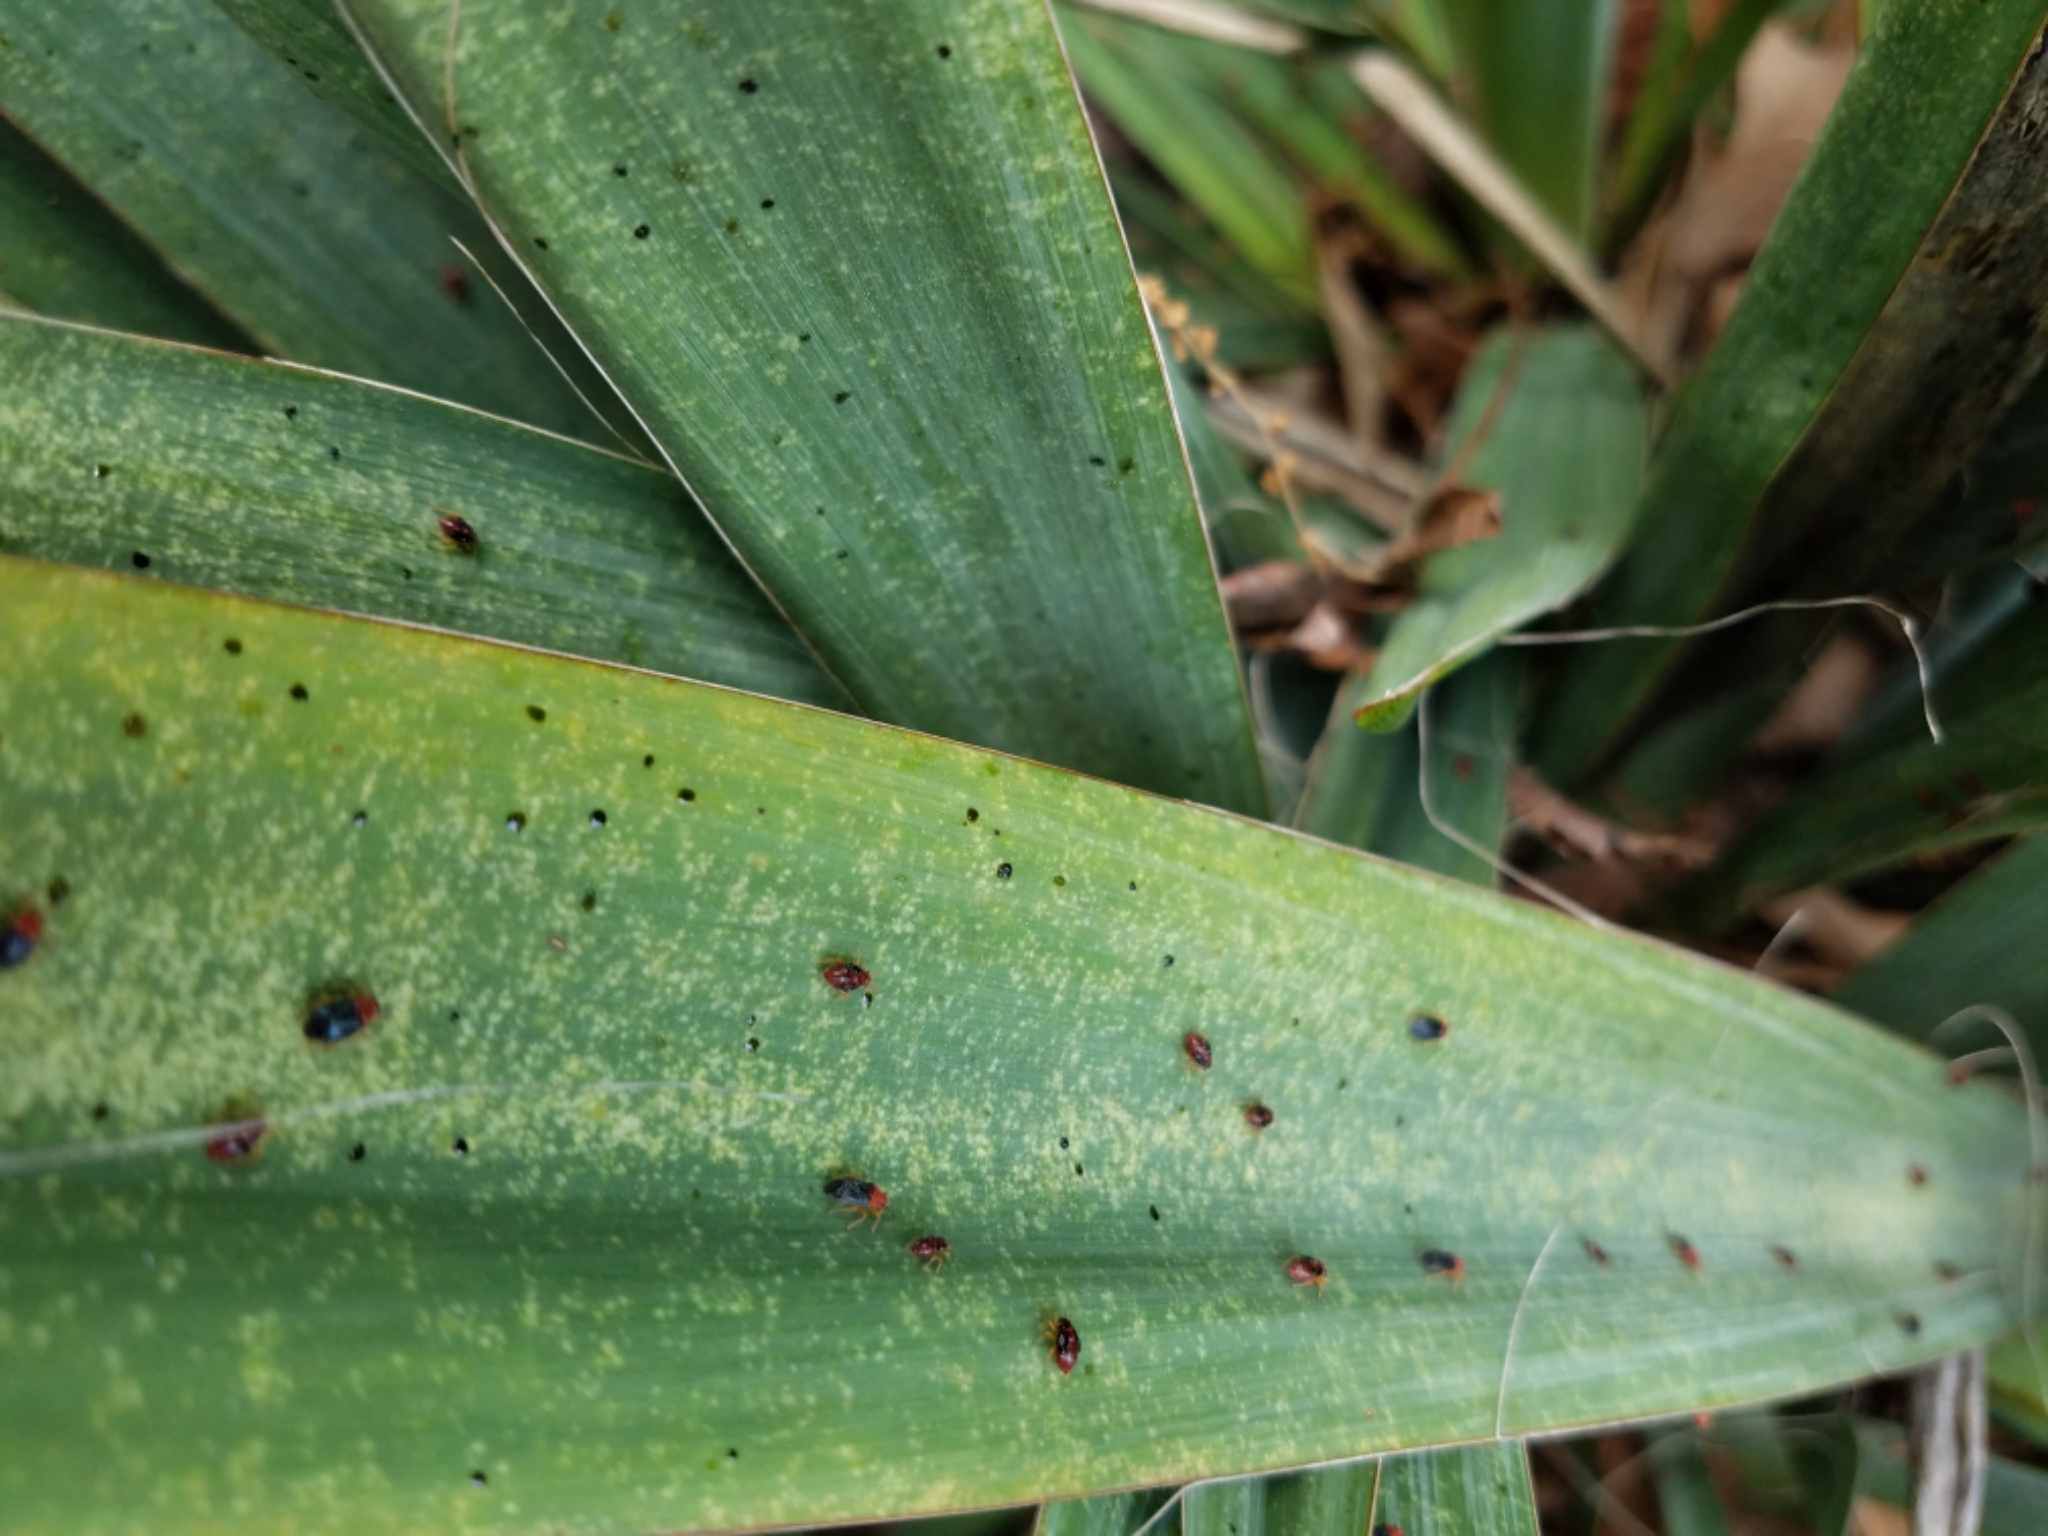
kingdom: Animalia
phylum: Arthropoda
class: Insecta
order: Hemiptera
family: Miridae
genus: Halticotoma
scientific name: Halticotoma valida
